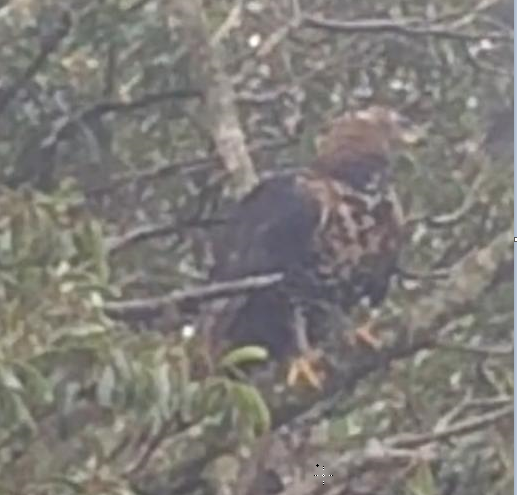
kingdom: Animalia
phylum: Chordata
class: Aves
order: Accipitriformes
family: Accipitridae
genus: Stephanoaetus
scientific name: Stephanoaetus coronatus
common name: Crowned eagle
